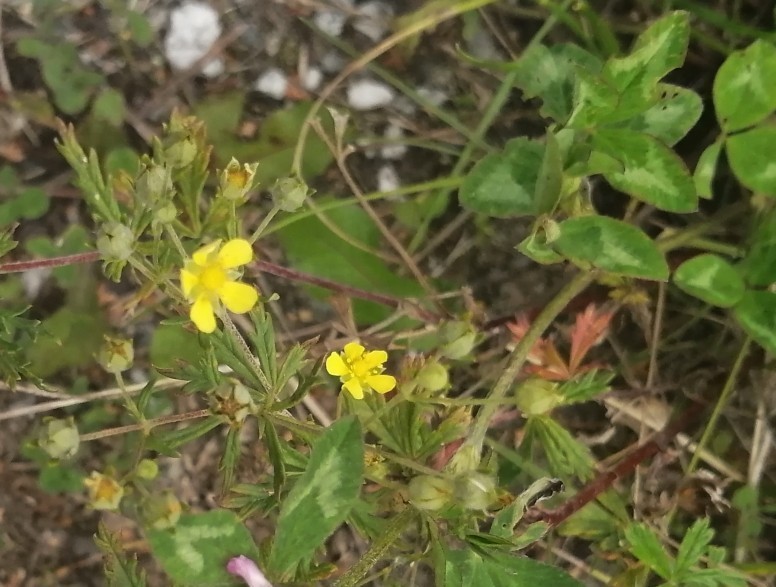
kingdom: Plantae
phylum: Tracheophyta
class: Magnoliopsida
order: Rosales
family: Rosaceae
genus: Potentilla
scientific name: Potentilla argentea
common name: Hoary cinquefoil
